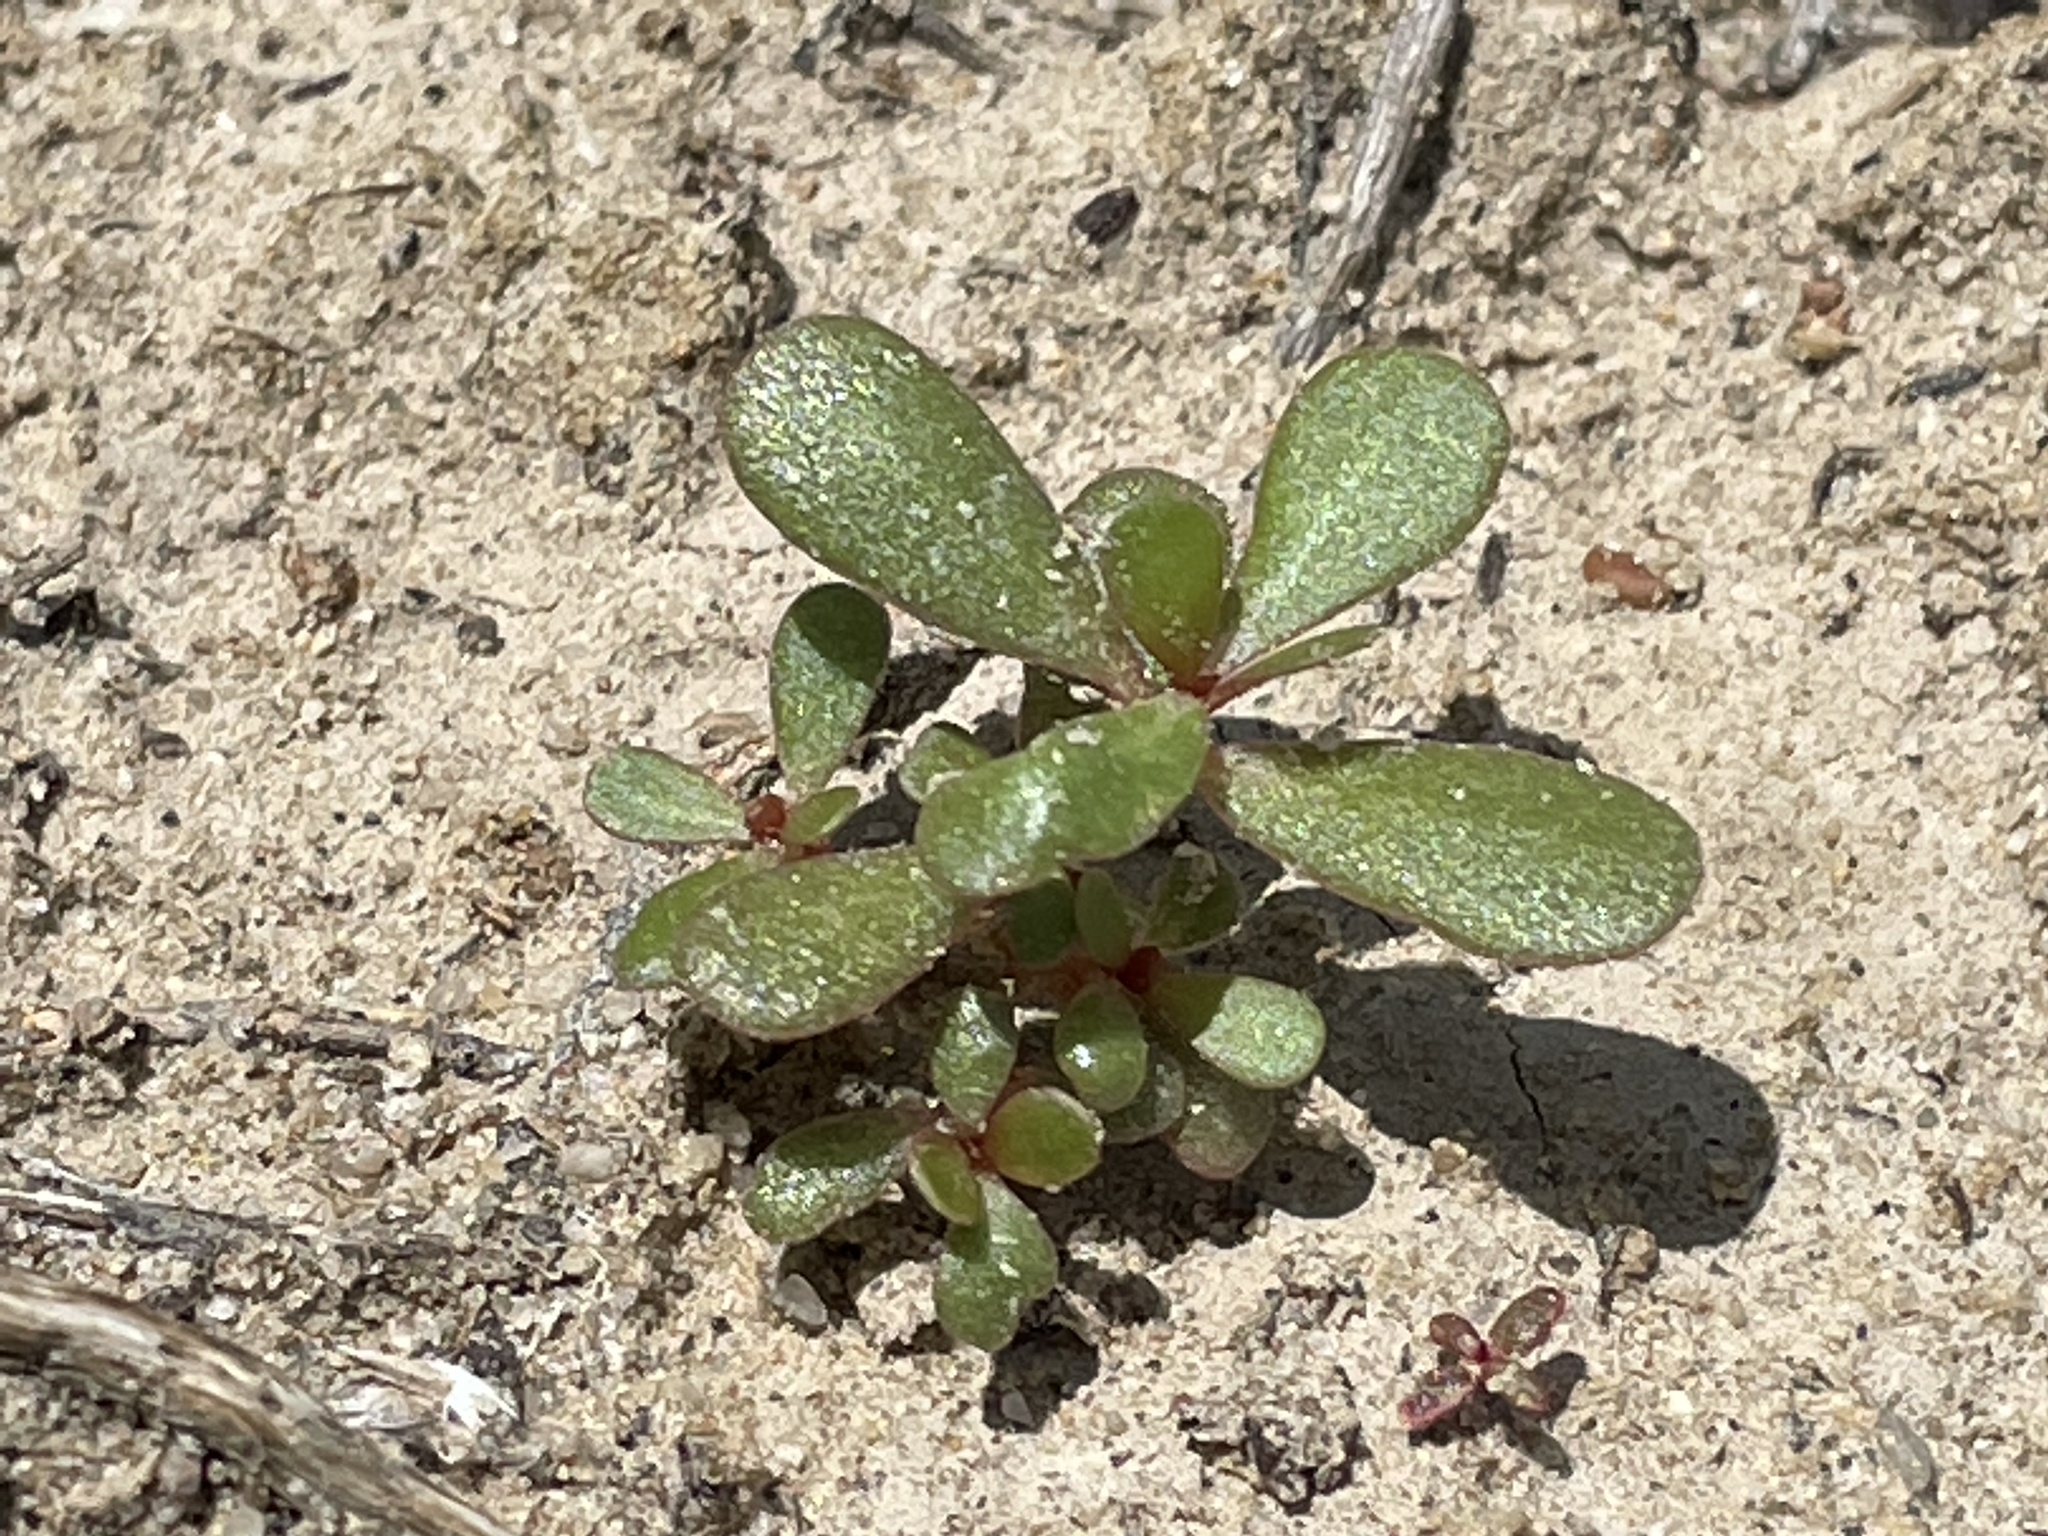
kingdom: Plantae
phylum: Tracheophyta
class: Magnoliopsida
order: Caryophyllales
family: Portulacaceae
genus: Portulaca
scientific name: Portulaca oleracea
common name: Common purslane
